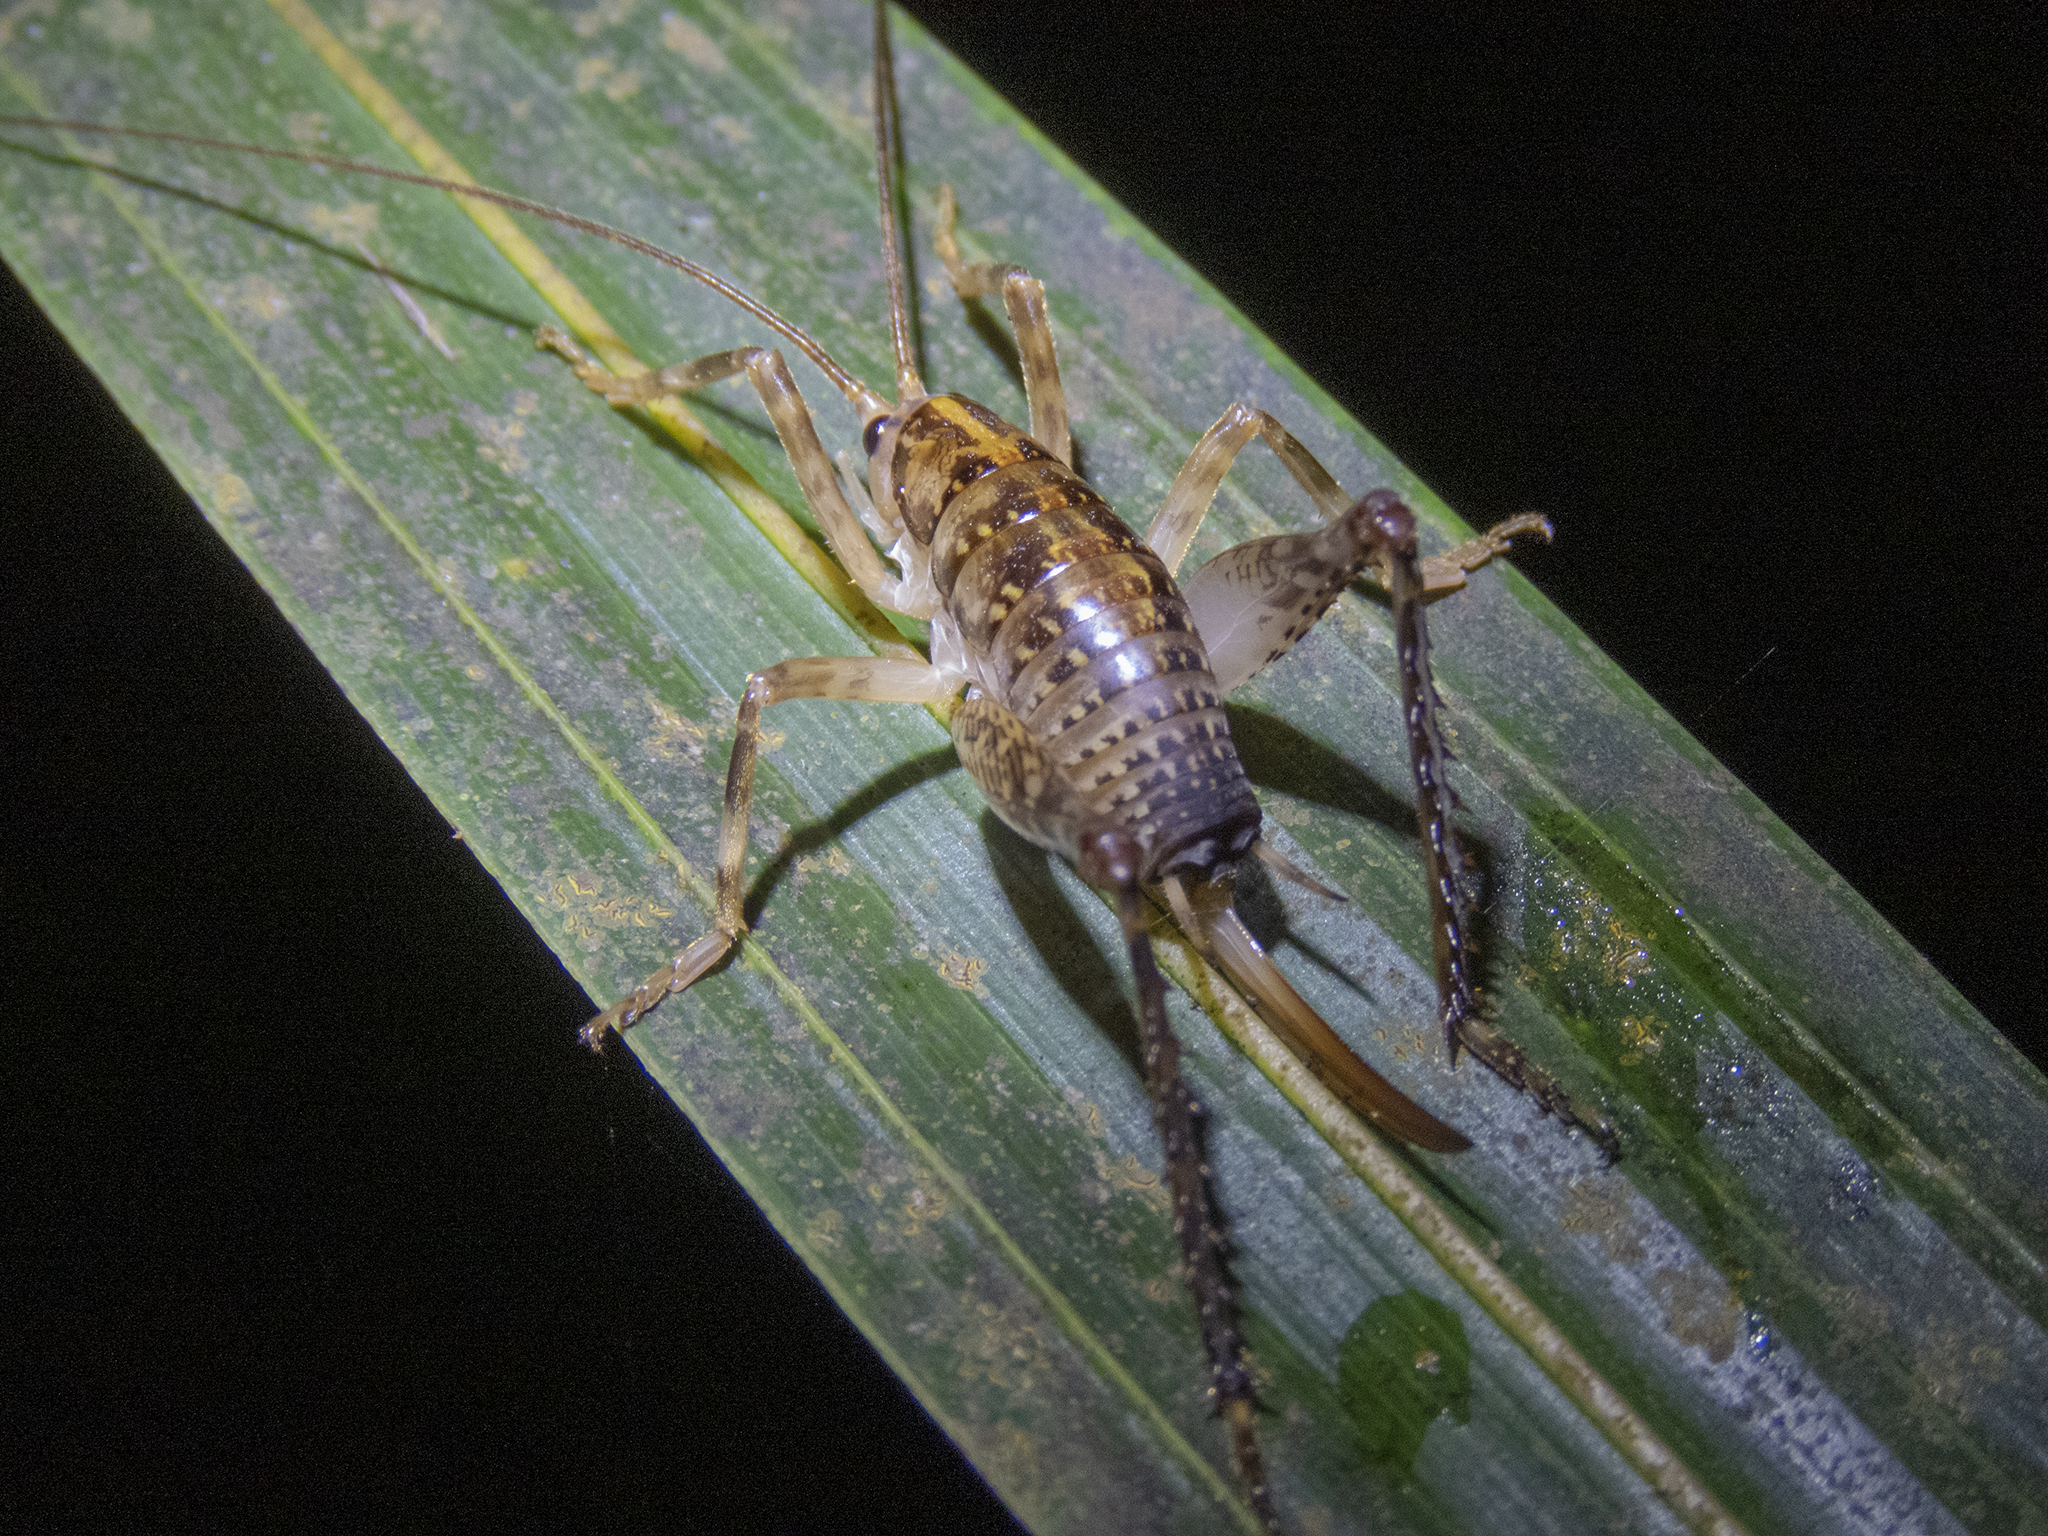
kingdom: Animalia
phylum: Arthropoda
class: Insecta
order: Orthoptera
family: Rhaphidophoridae
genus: Talitropsis
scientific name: Talitropsis sedilloti
